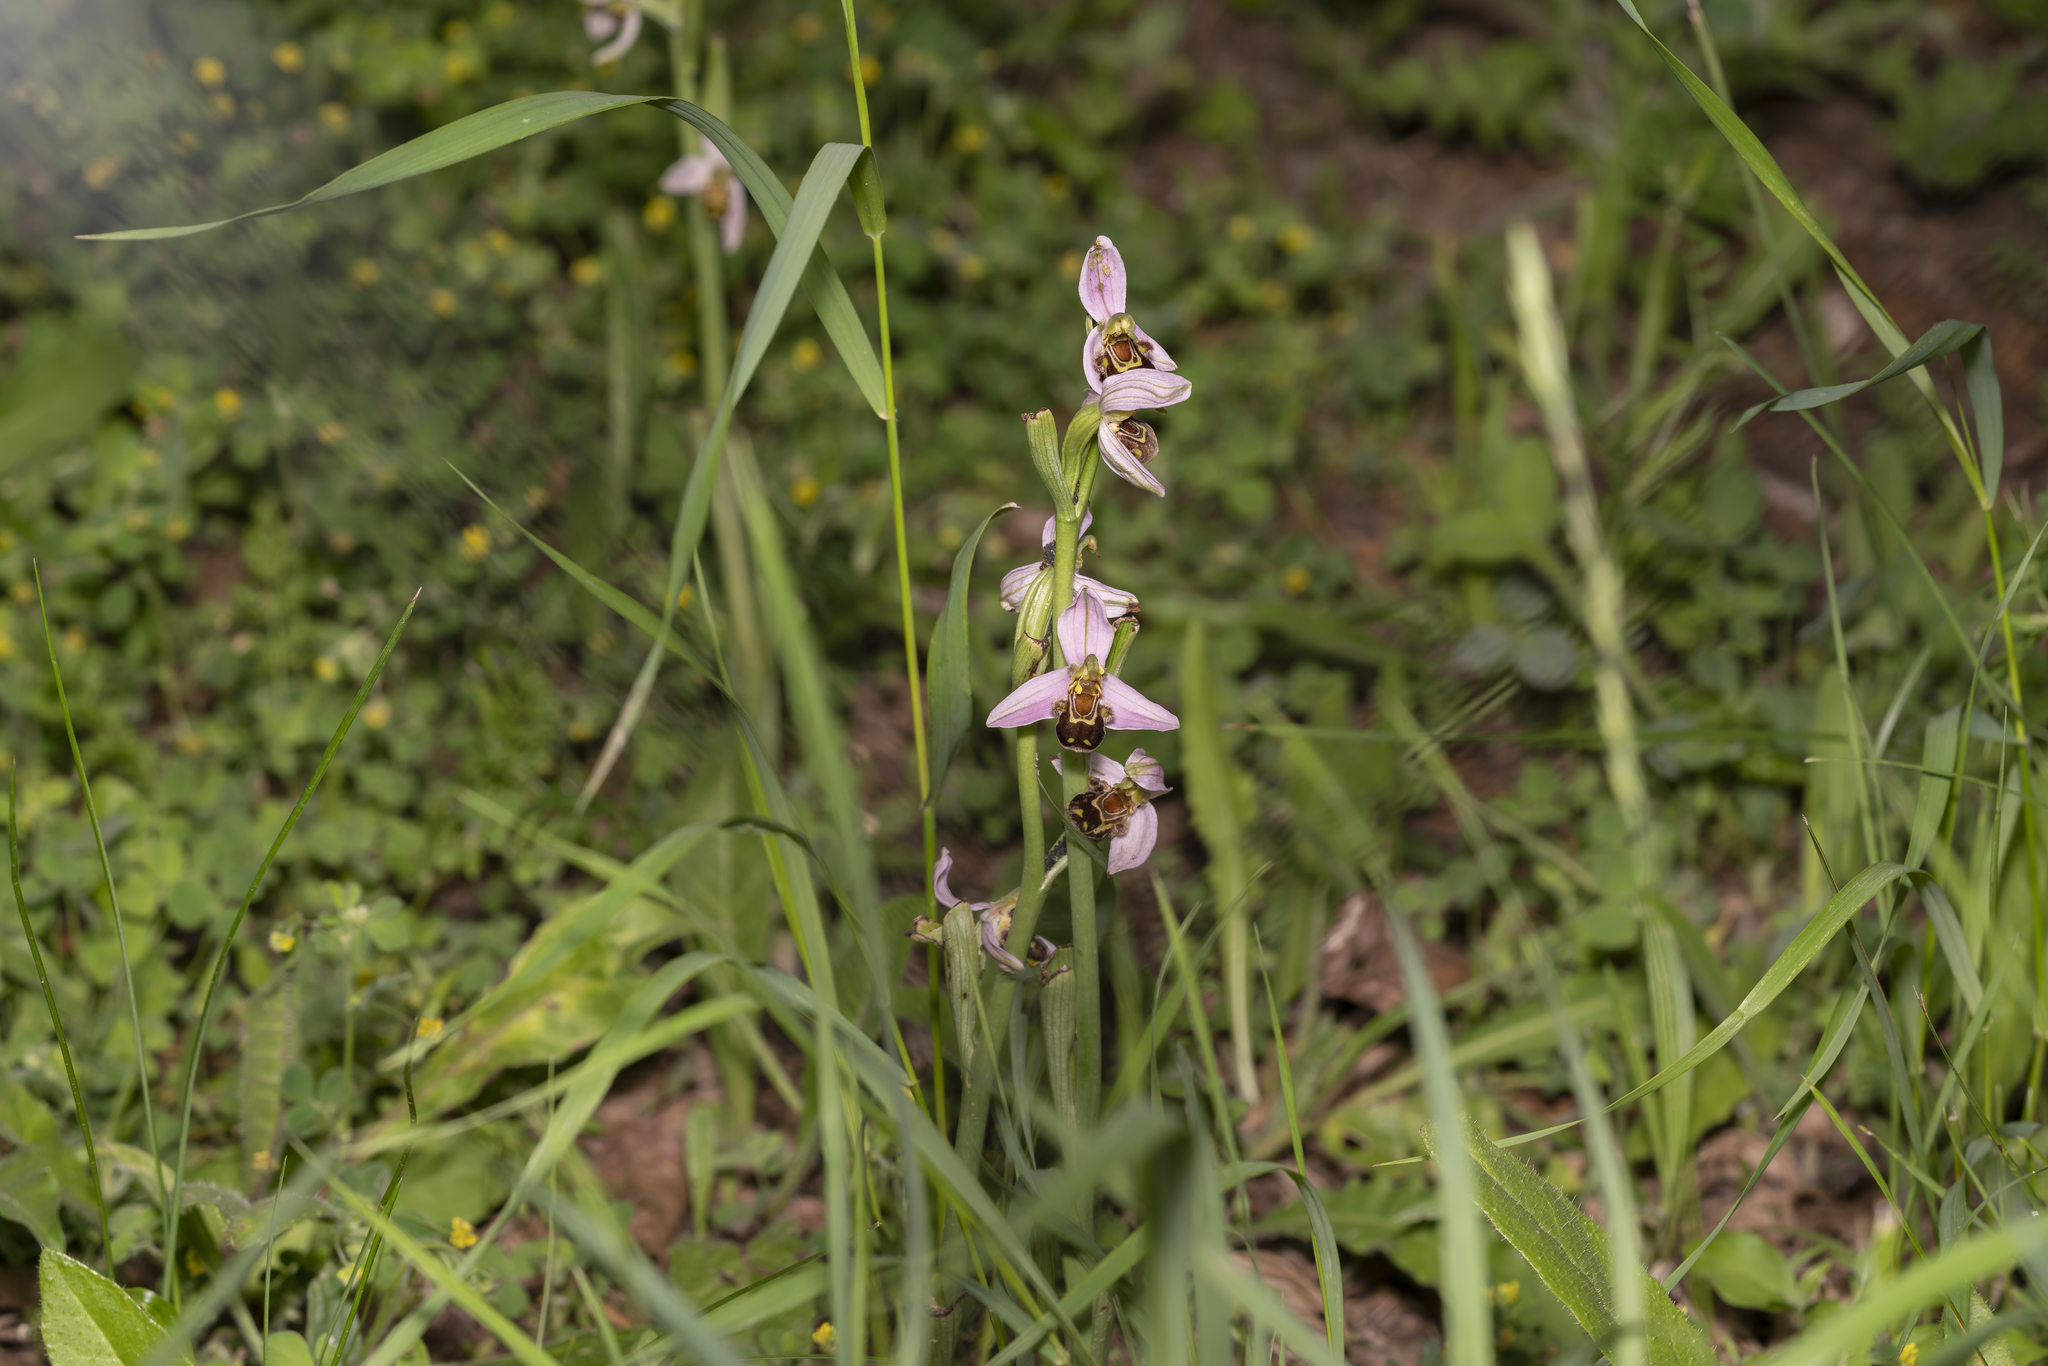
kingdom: Plantae
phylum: Tracheophyta
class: Liliopsida
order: Asparagales
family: Orchidaceae
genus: Ophrys
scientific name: Ophrys apifera
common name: Bee orchid
